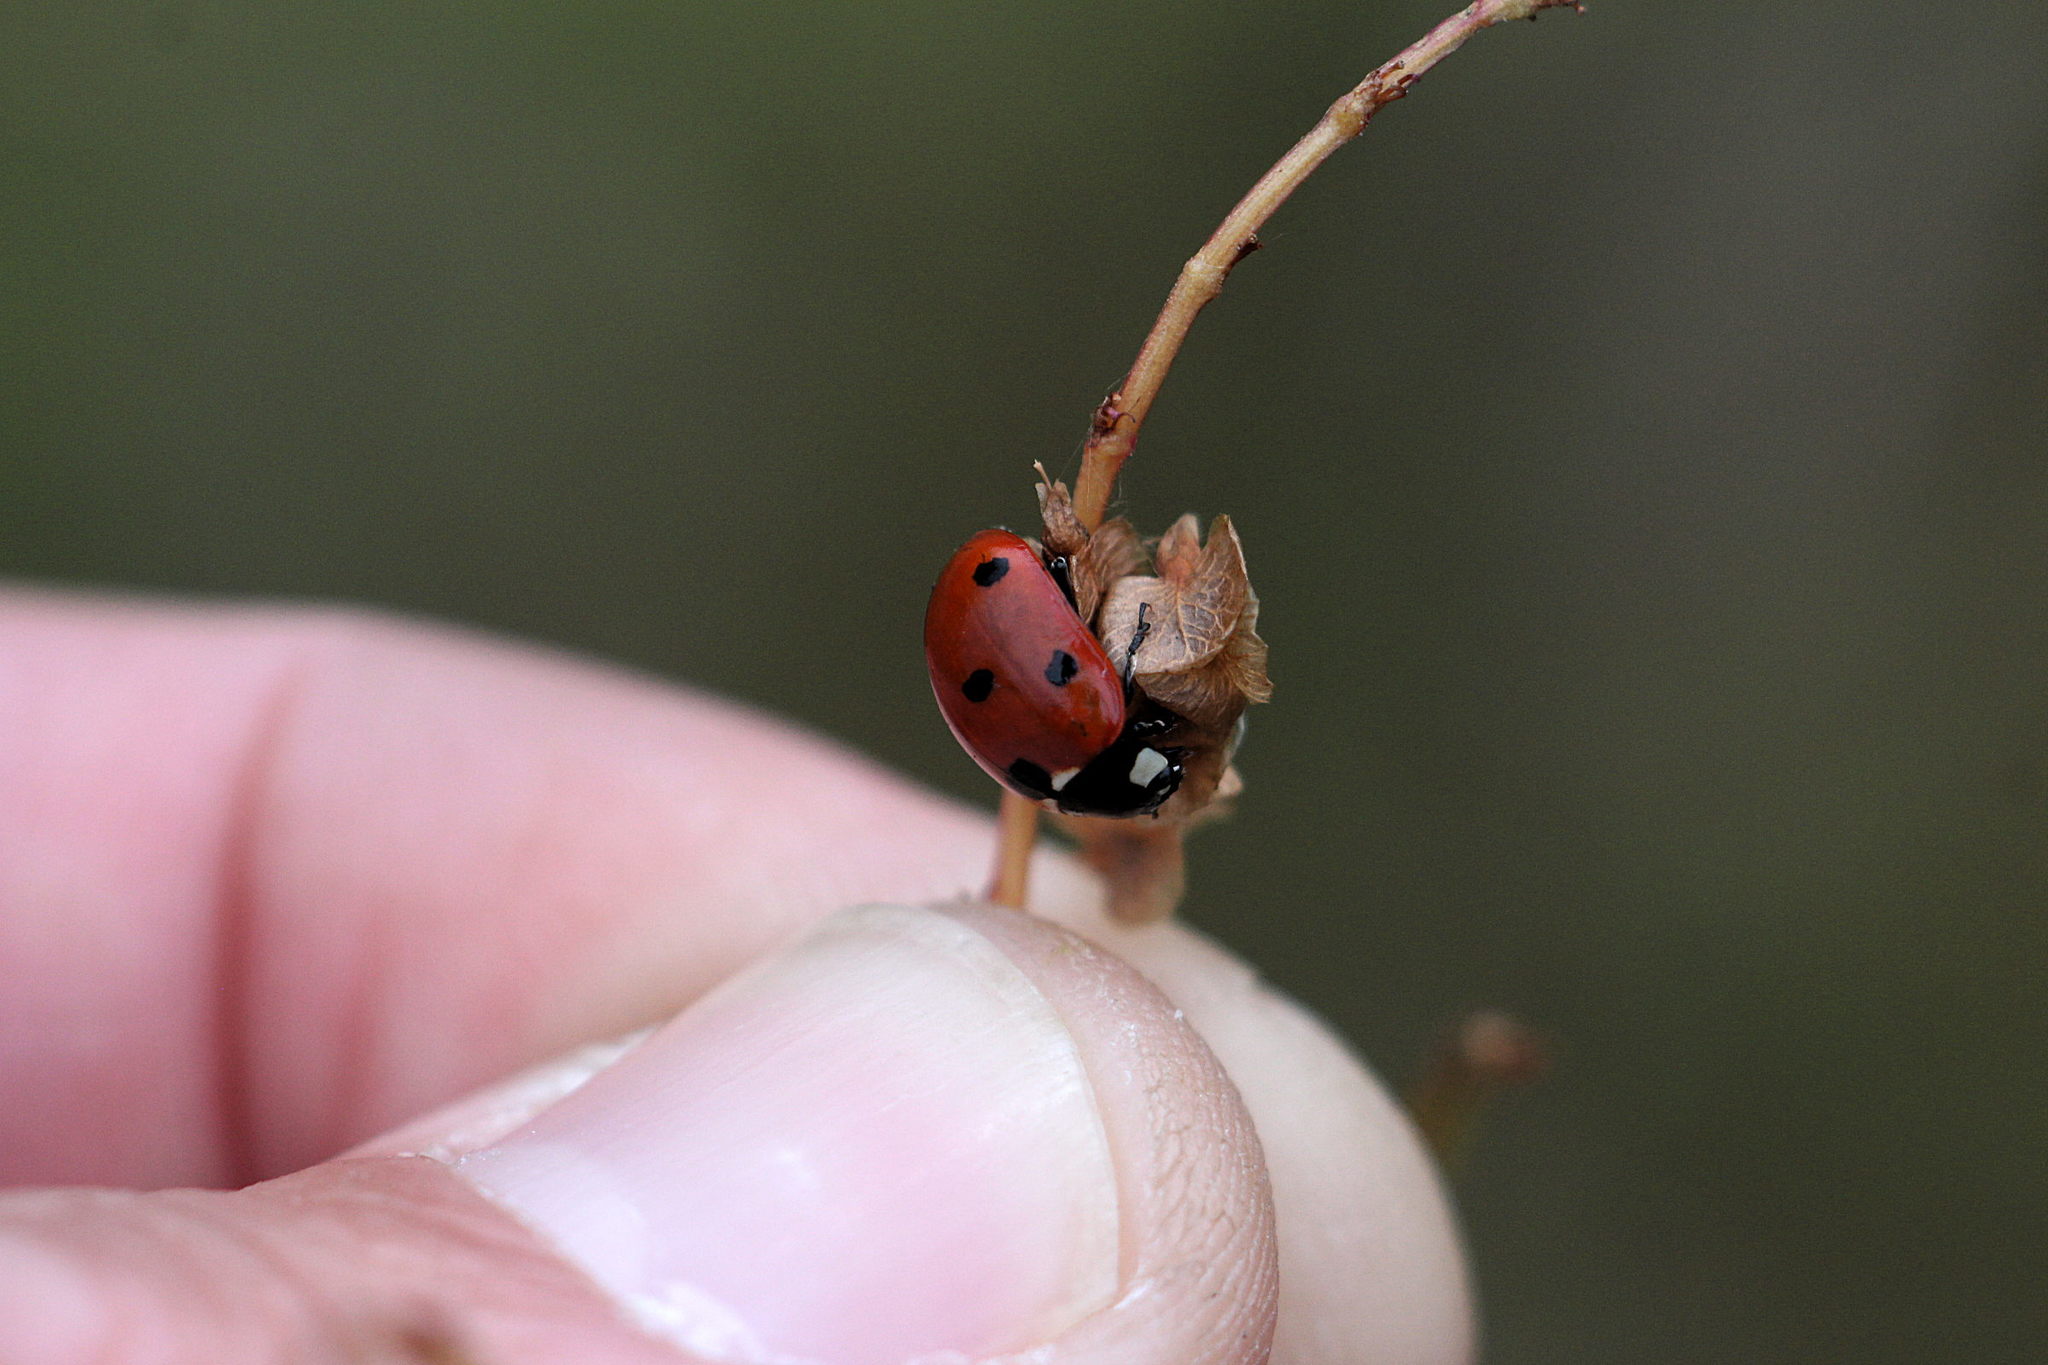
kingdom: Animalia
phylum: Arthropoda
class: Insecta
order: Coleoptera
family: Coccinellidae
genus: Coccinella
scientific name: Coccinella septempunctata
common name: Sevenspotted lady beetle
